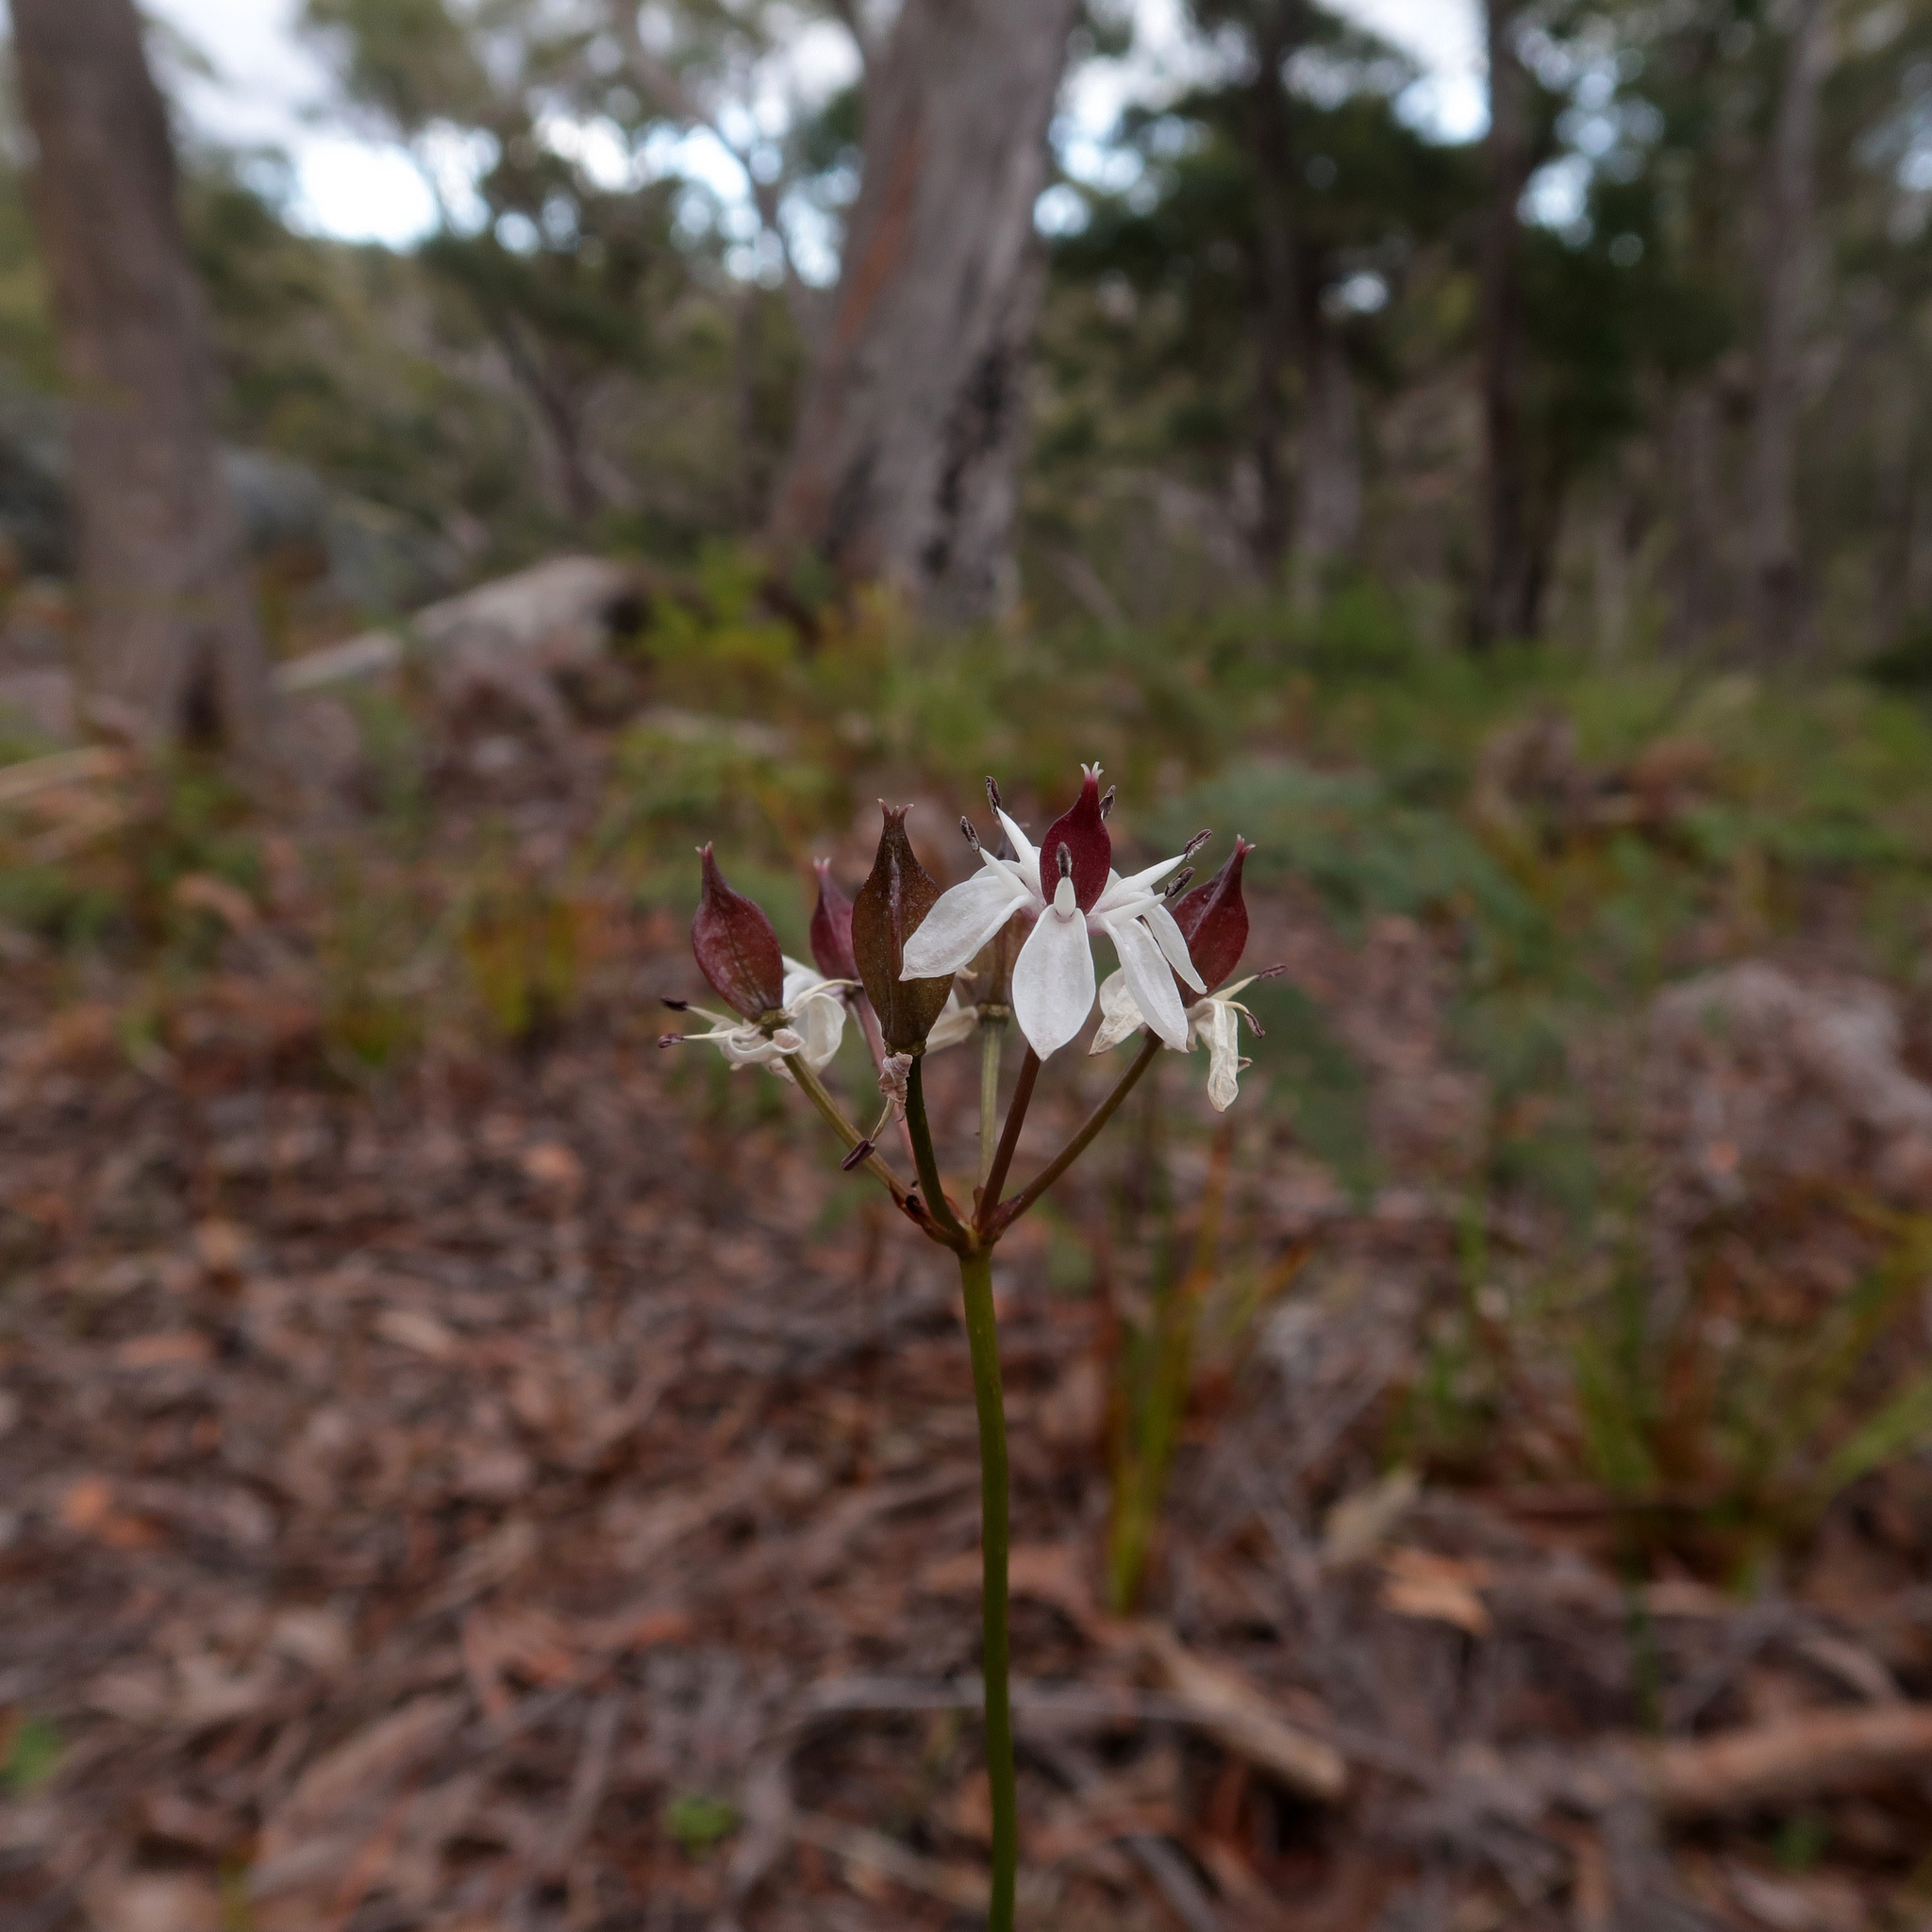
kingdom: Plantae
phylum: Tracheophyta
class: Liliopsida
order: Liliales
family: Colchicaceae
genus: Burchardia
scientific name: Burchardia umbellata
